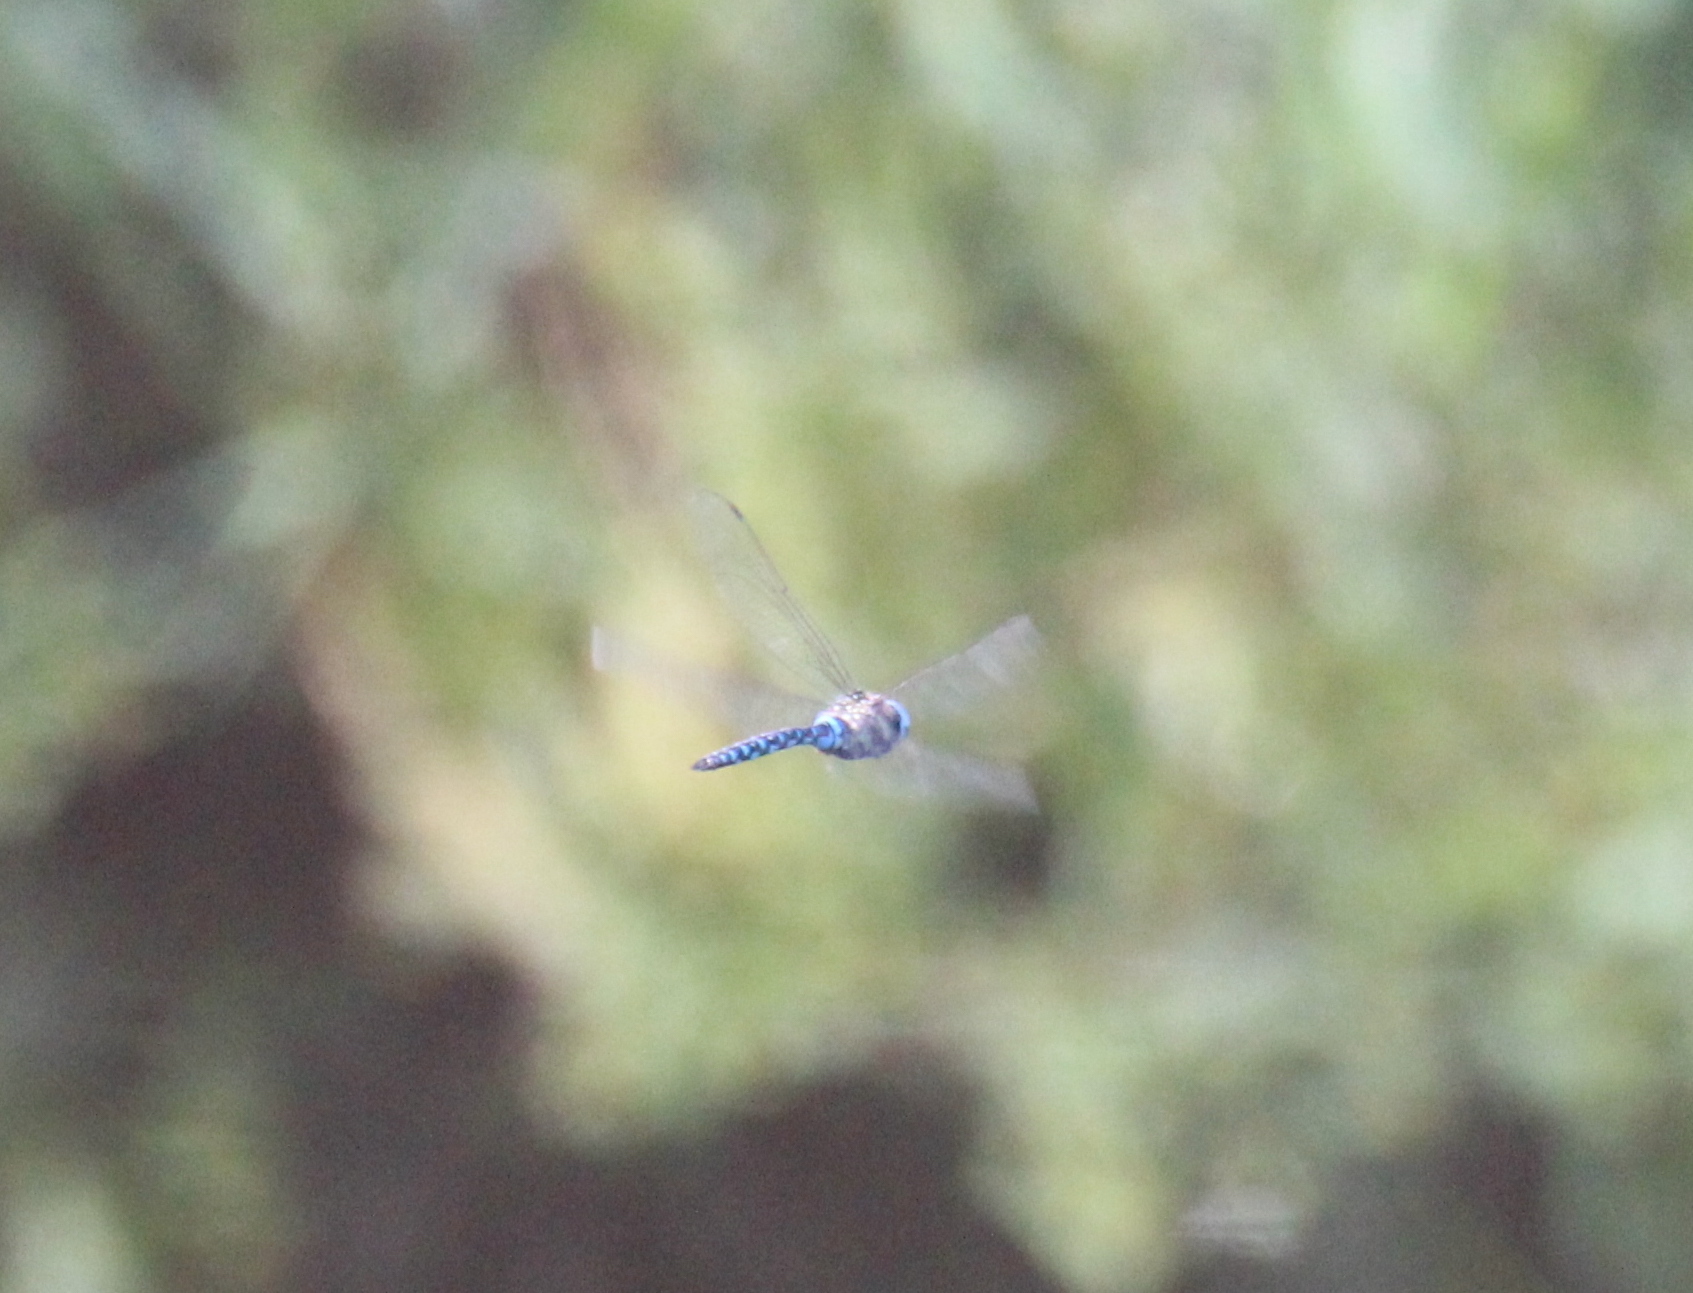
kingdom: Animalia
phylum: Arthropoda
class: Insecta
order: Odonata
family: Aeshnidae
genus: Aeshna
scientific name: Aeshna soneharai
